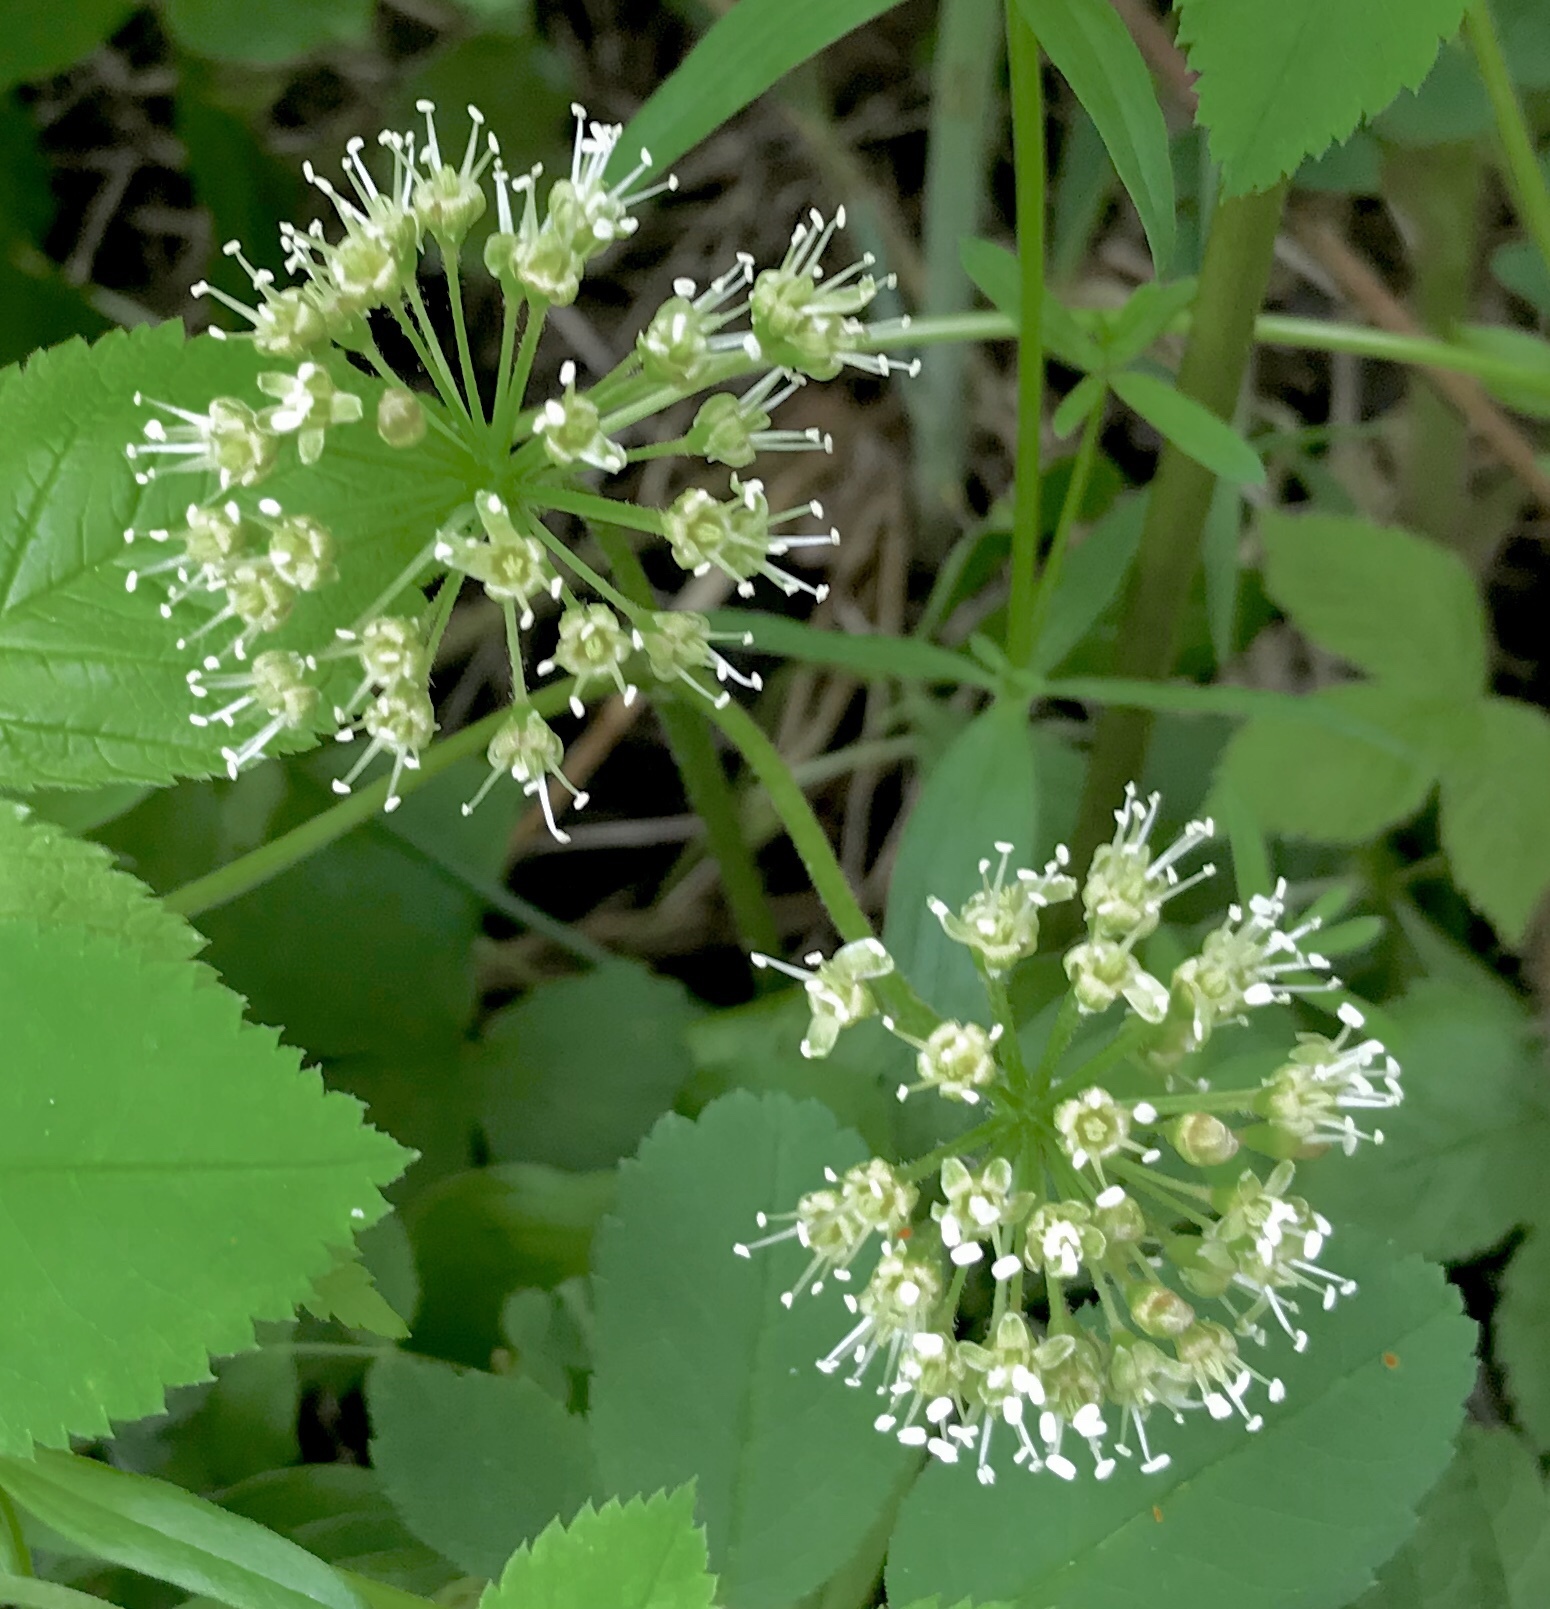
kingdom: Plantae
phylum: Tracheophyta
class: Magnoliopsida
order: Apiales
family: Araliaceae
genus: Aralia
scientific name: Aralia nudicaulis
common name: Wild sarsaparilla
